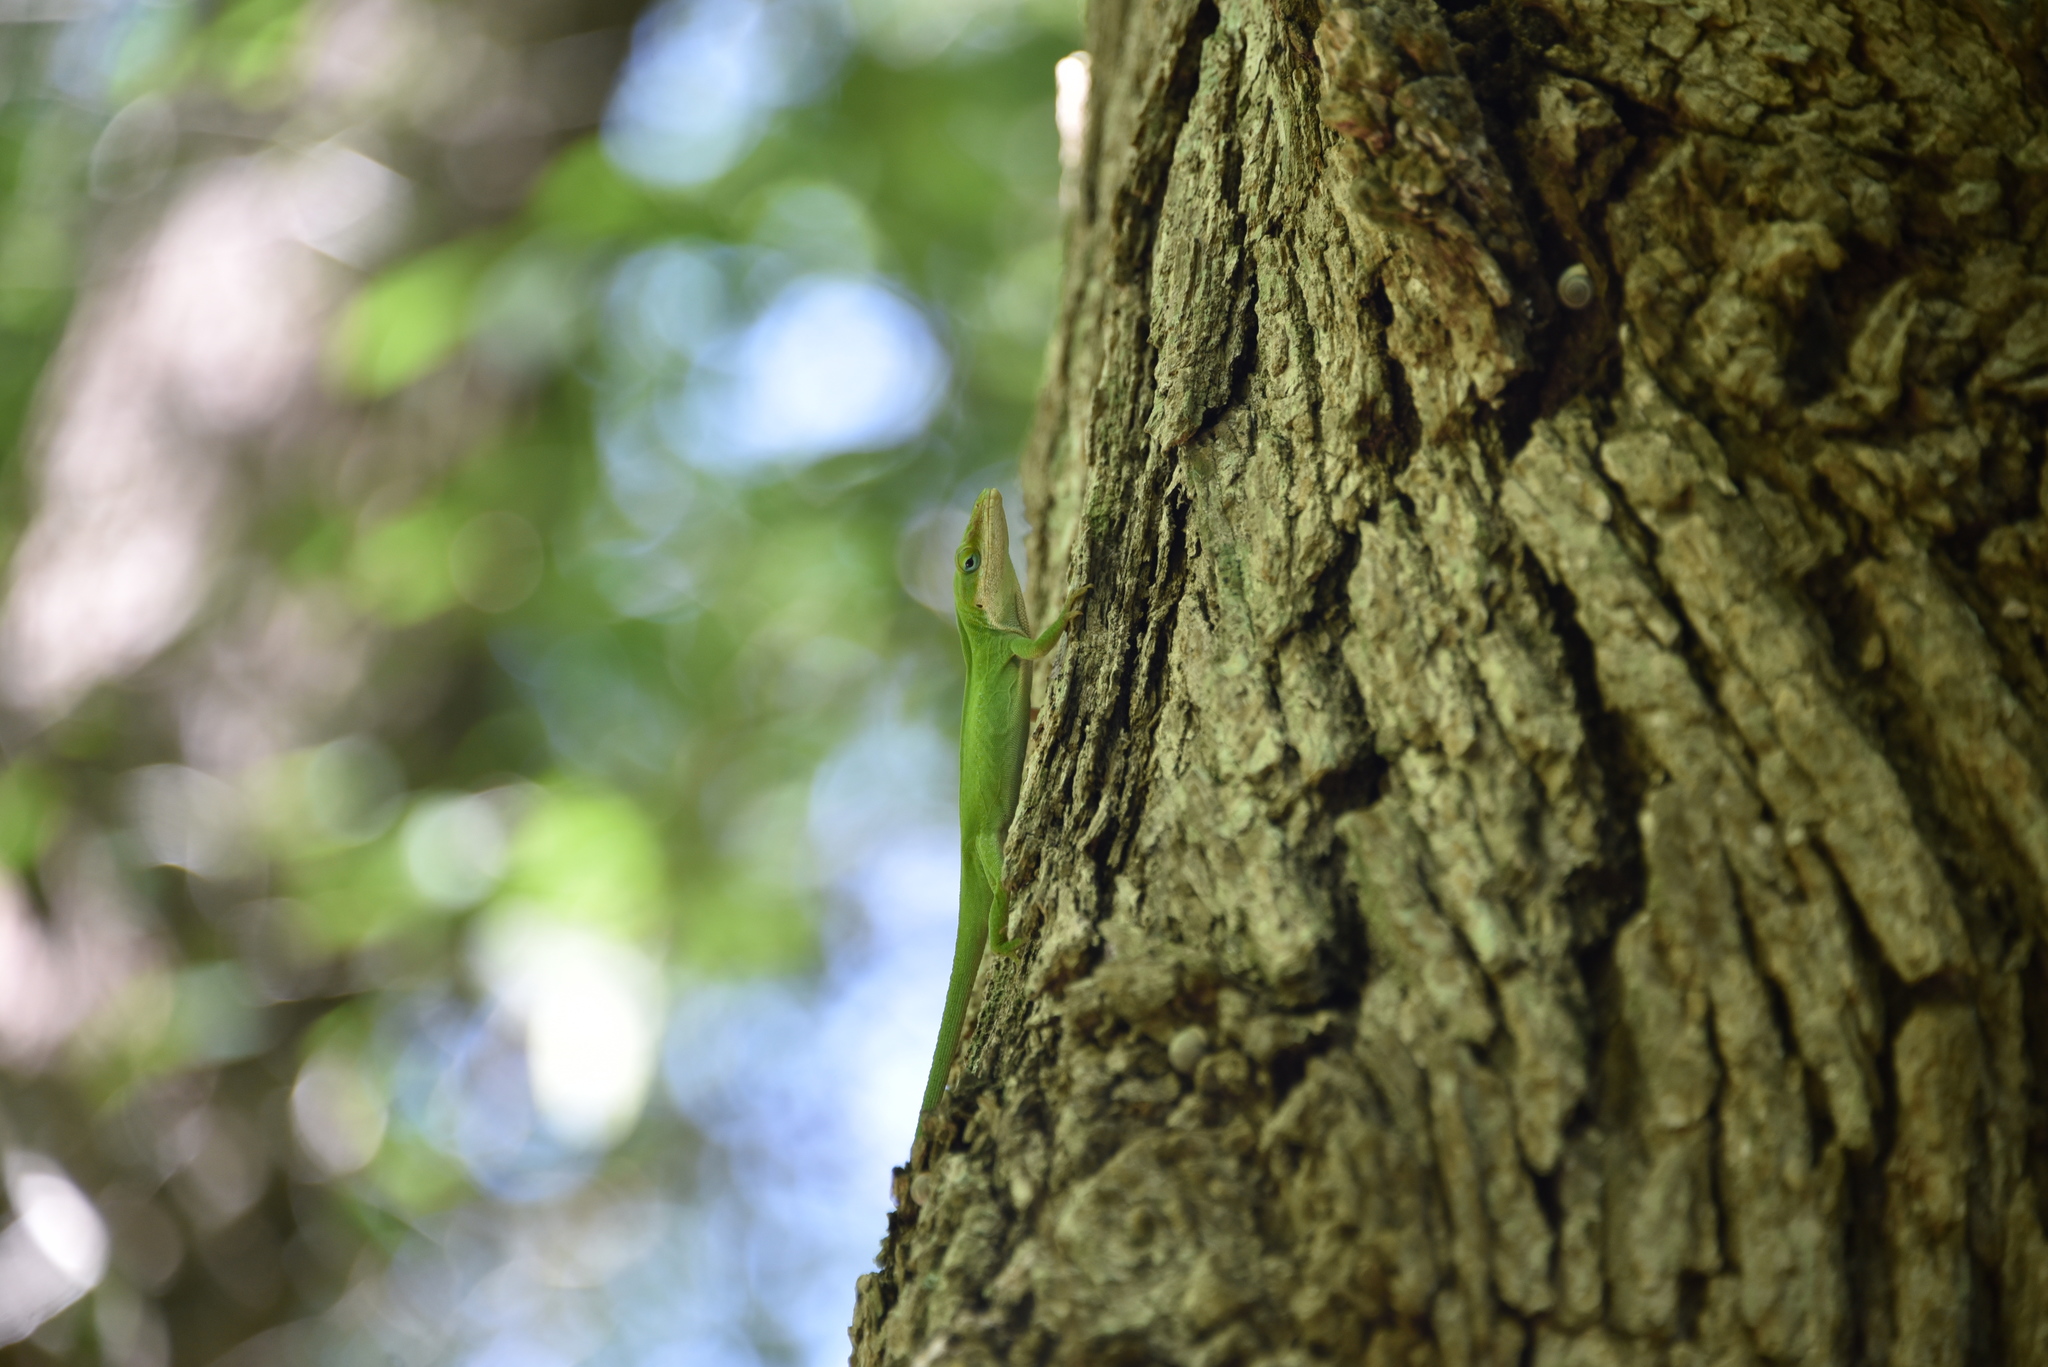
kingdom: Animalia
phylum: Chordata
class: Squamata
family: Dactyloidae
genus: Anolis
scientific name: Anolis carolinensis
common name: Green anole
